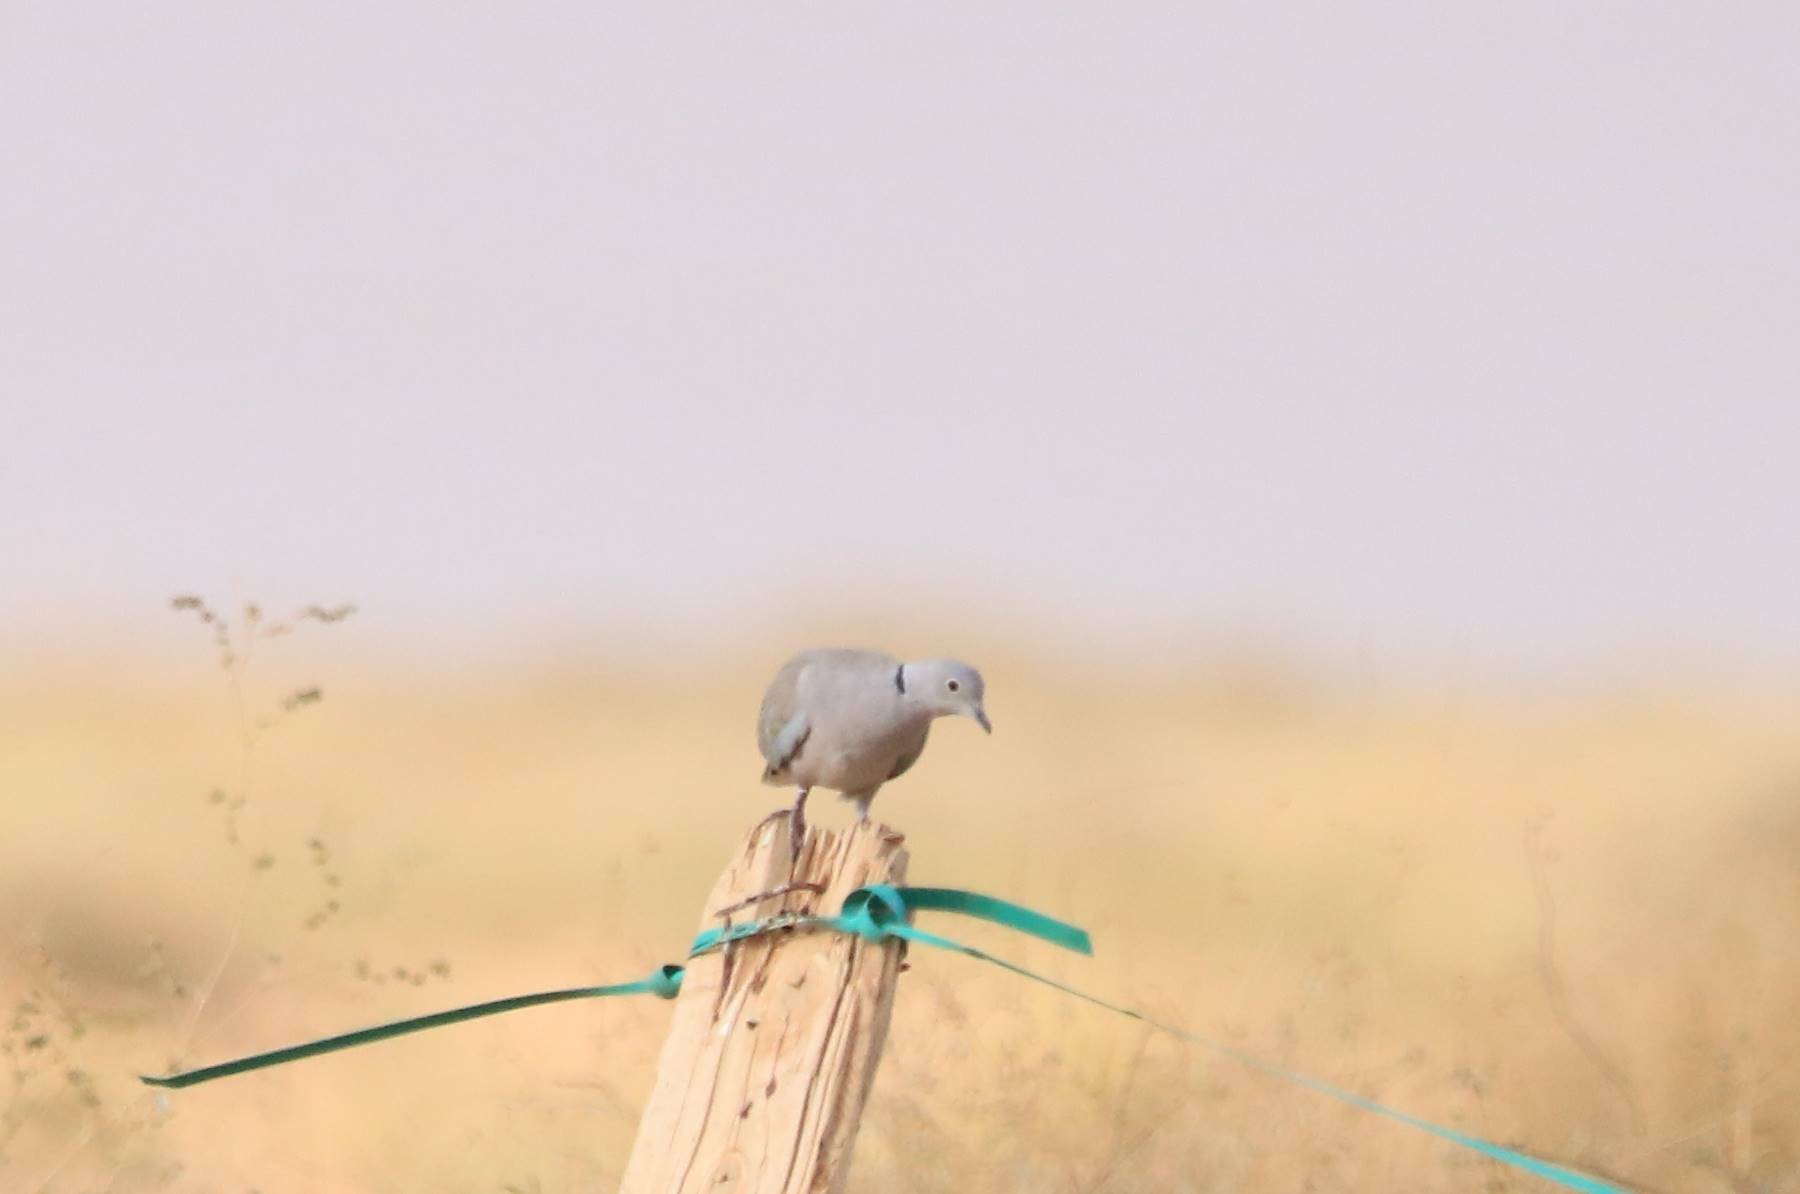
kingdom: Animalia
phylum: Chordata
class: Aves
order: Columbiformes
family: Columbidae
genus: Streptopelia
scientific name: Streptopelia decaocto
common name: Eurasian collared dove
